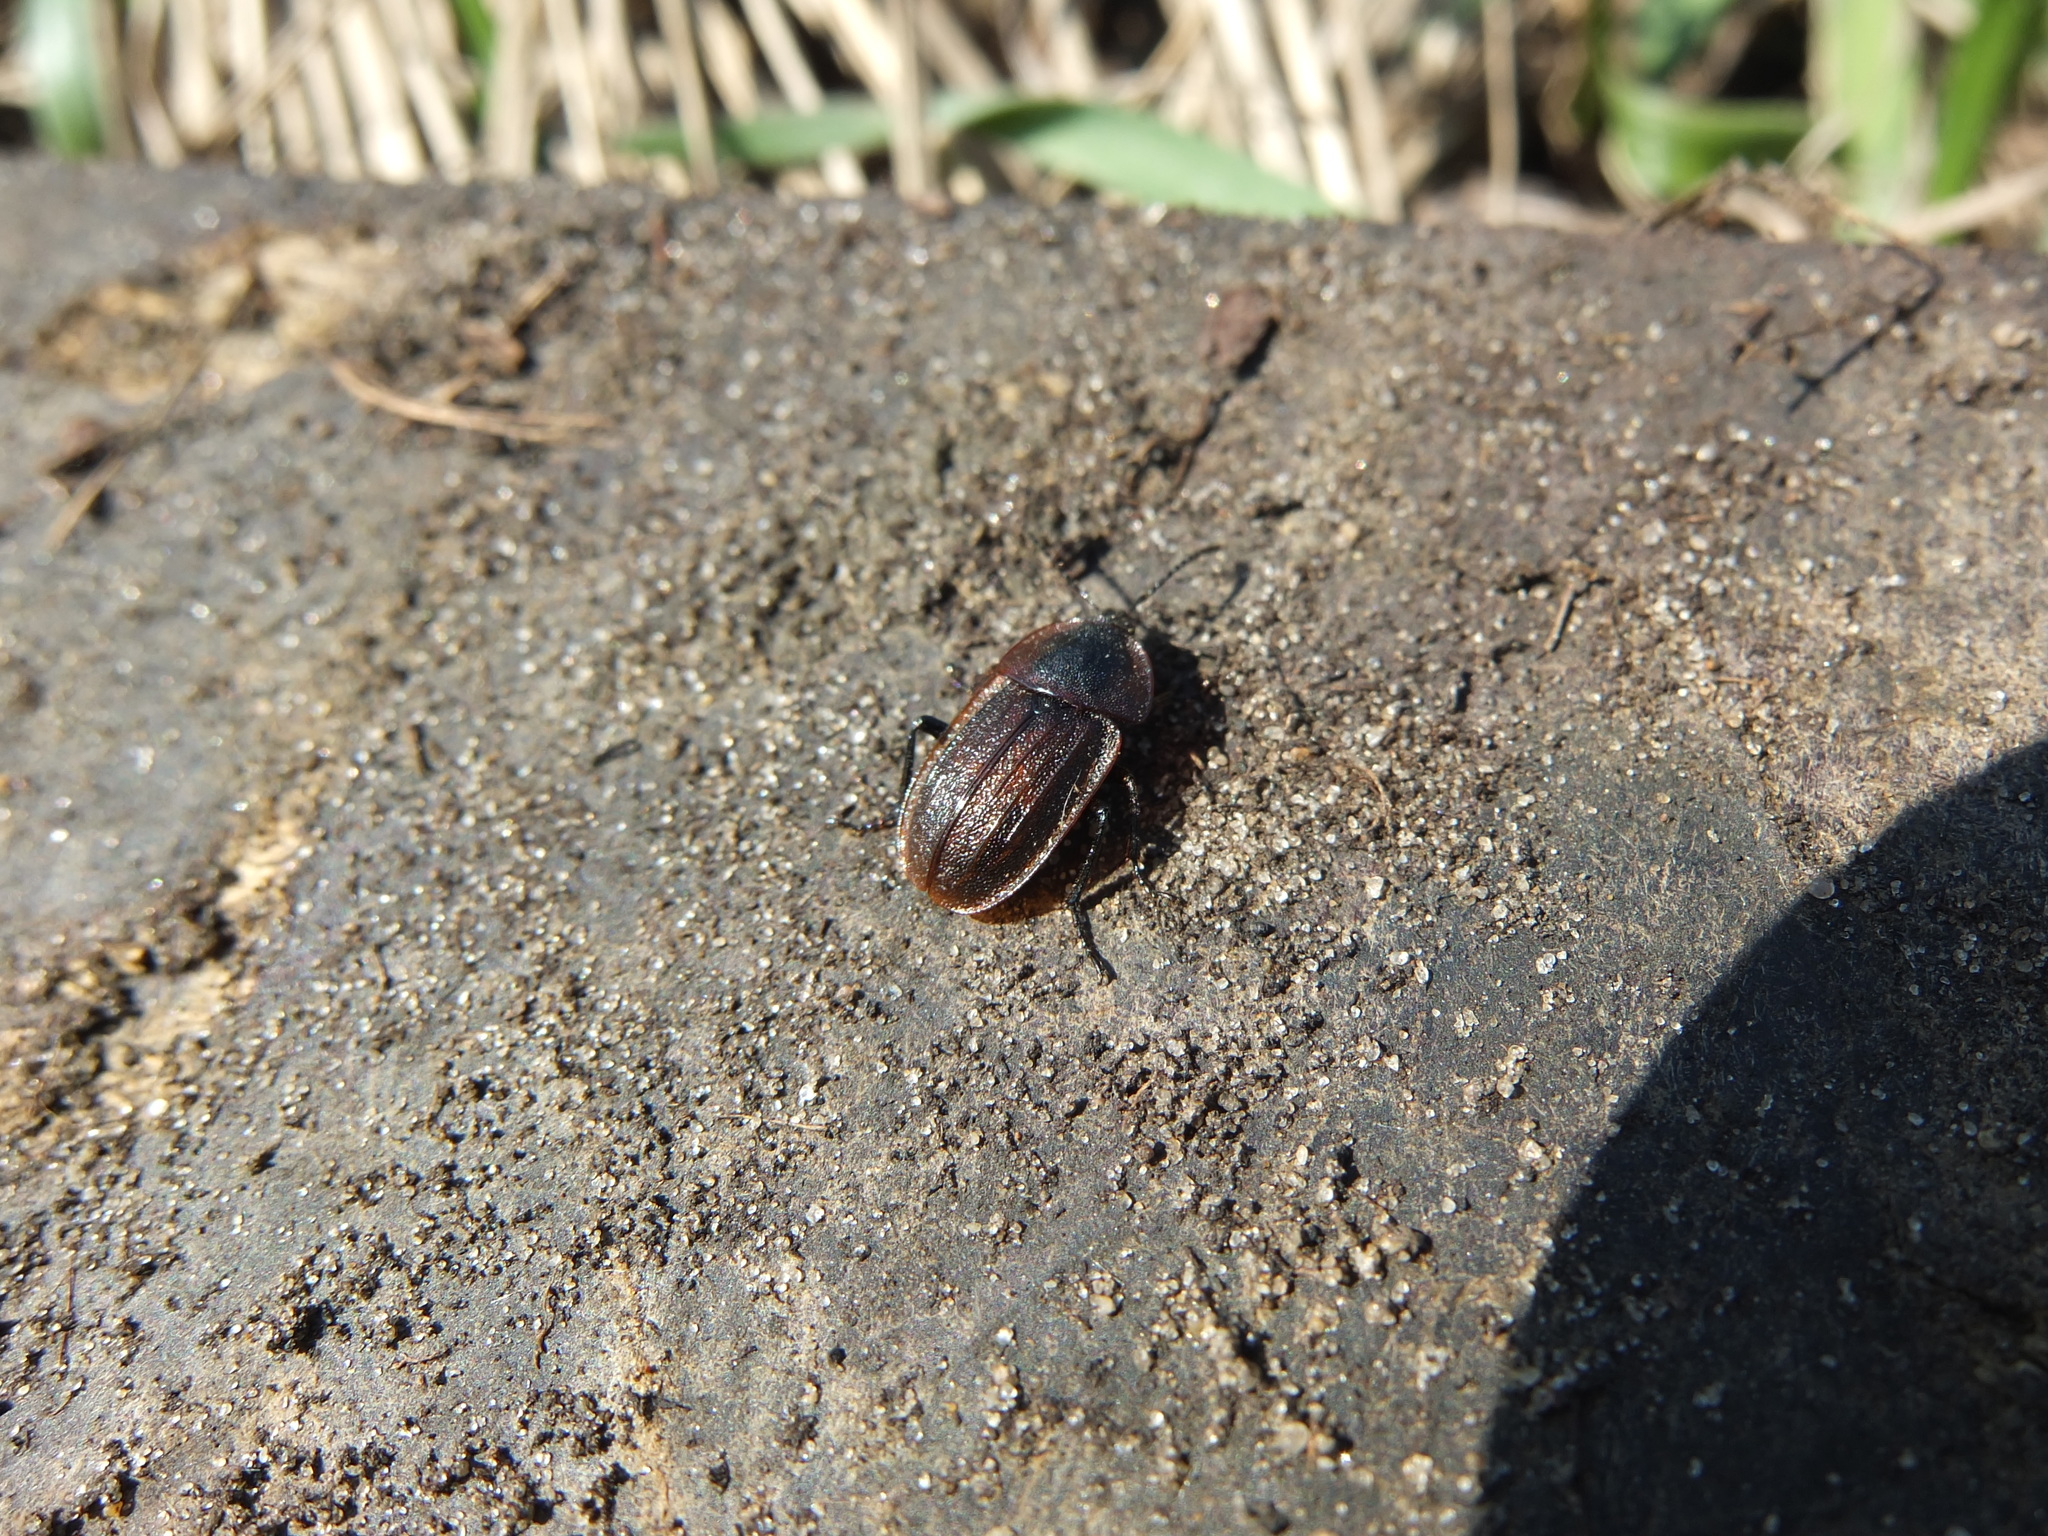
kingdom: Animalia
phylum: Arthropoda
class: Insecta
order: Coleoptera
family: Staphylinidae
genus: Silpha
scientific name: Silpha atrata
